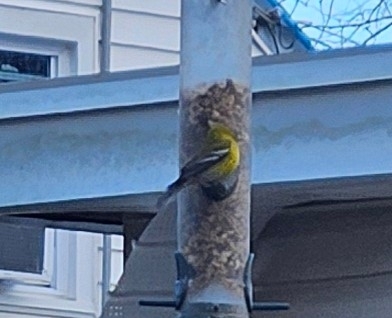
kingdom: Animalia
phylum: Chordata
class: Aves
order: Passeriformes
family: Parulidae
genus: Setophaga
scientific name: Setophaga pinus
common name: Pine warbler
